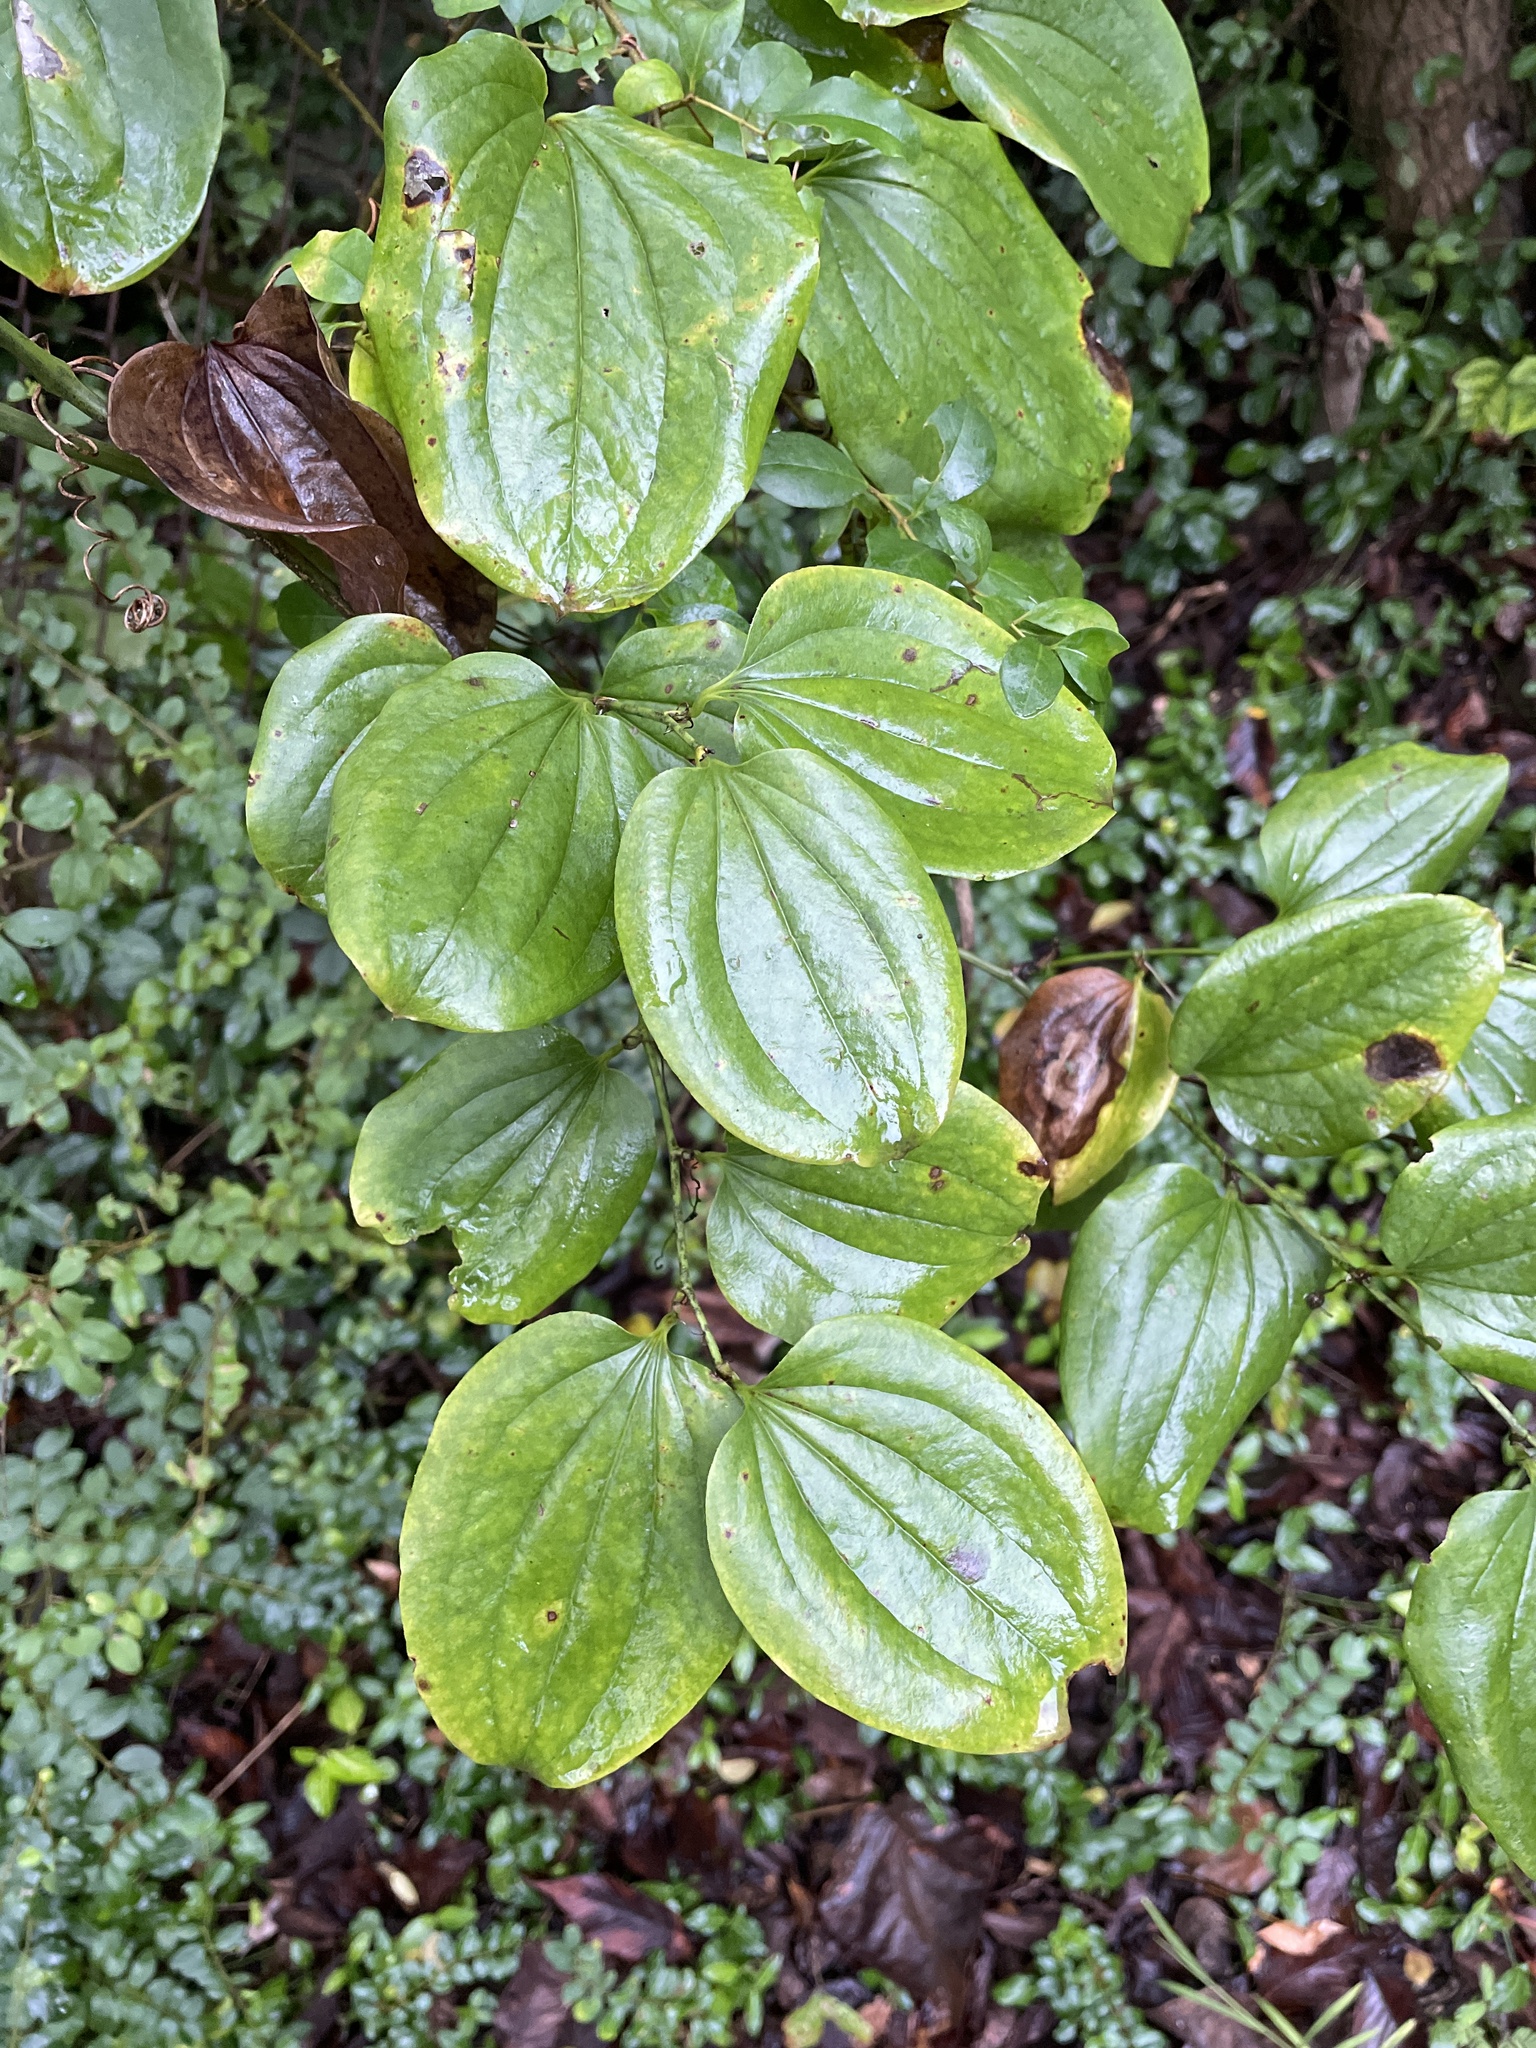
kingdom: Plantae
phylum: Tracheophyta
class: Liliopsida
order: Liliales
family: Smilacaceae
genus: Smilax
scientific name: Smilax tamnoides
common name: Hellfetter
